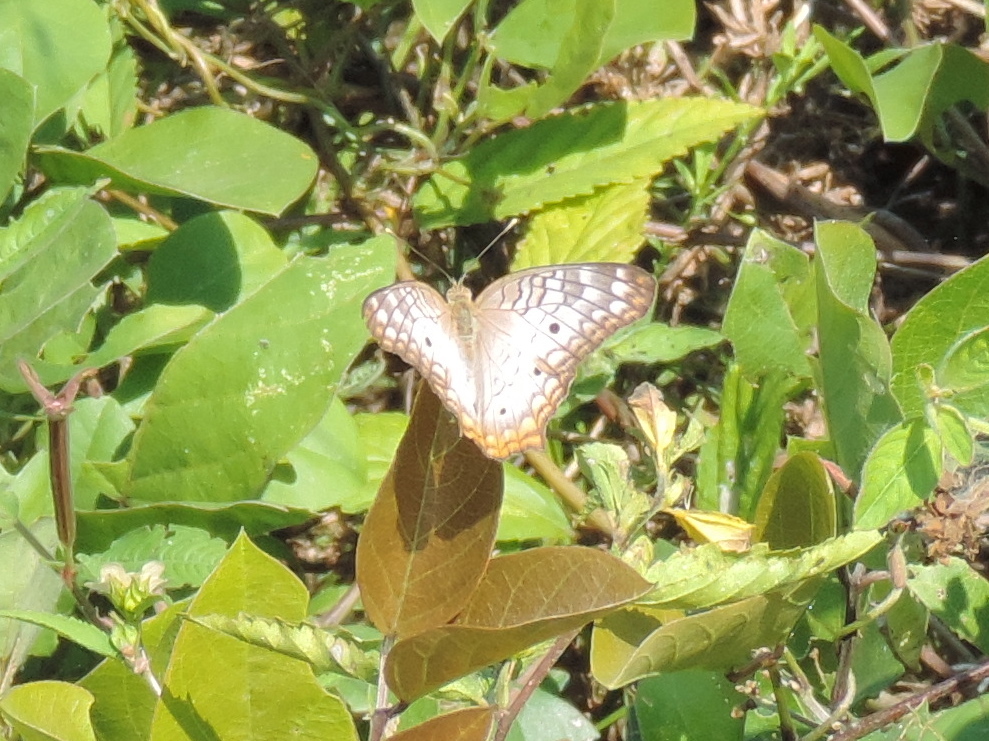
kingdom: Animalia
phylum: Arthropoda
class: Insecta
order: Lepidoptera
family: Nymphalidae
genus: Anartia
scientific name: Anartia jatrophae
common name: White peacock
